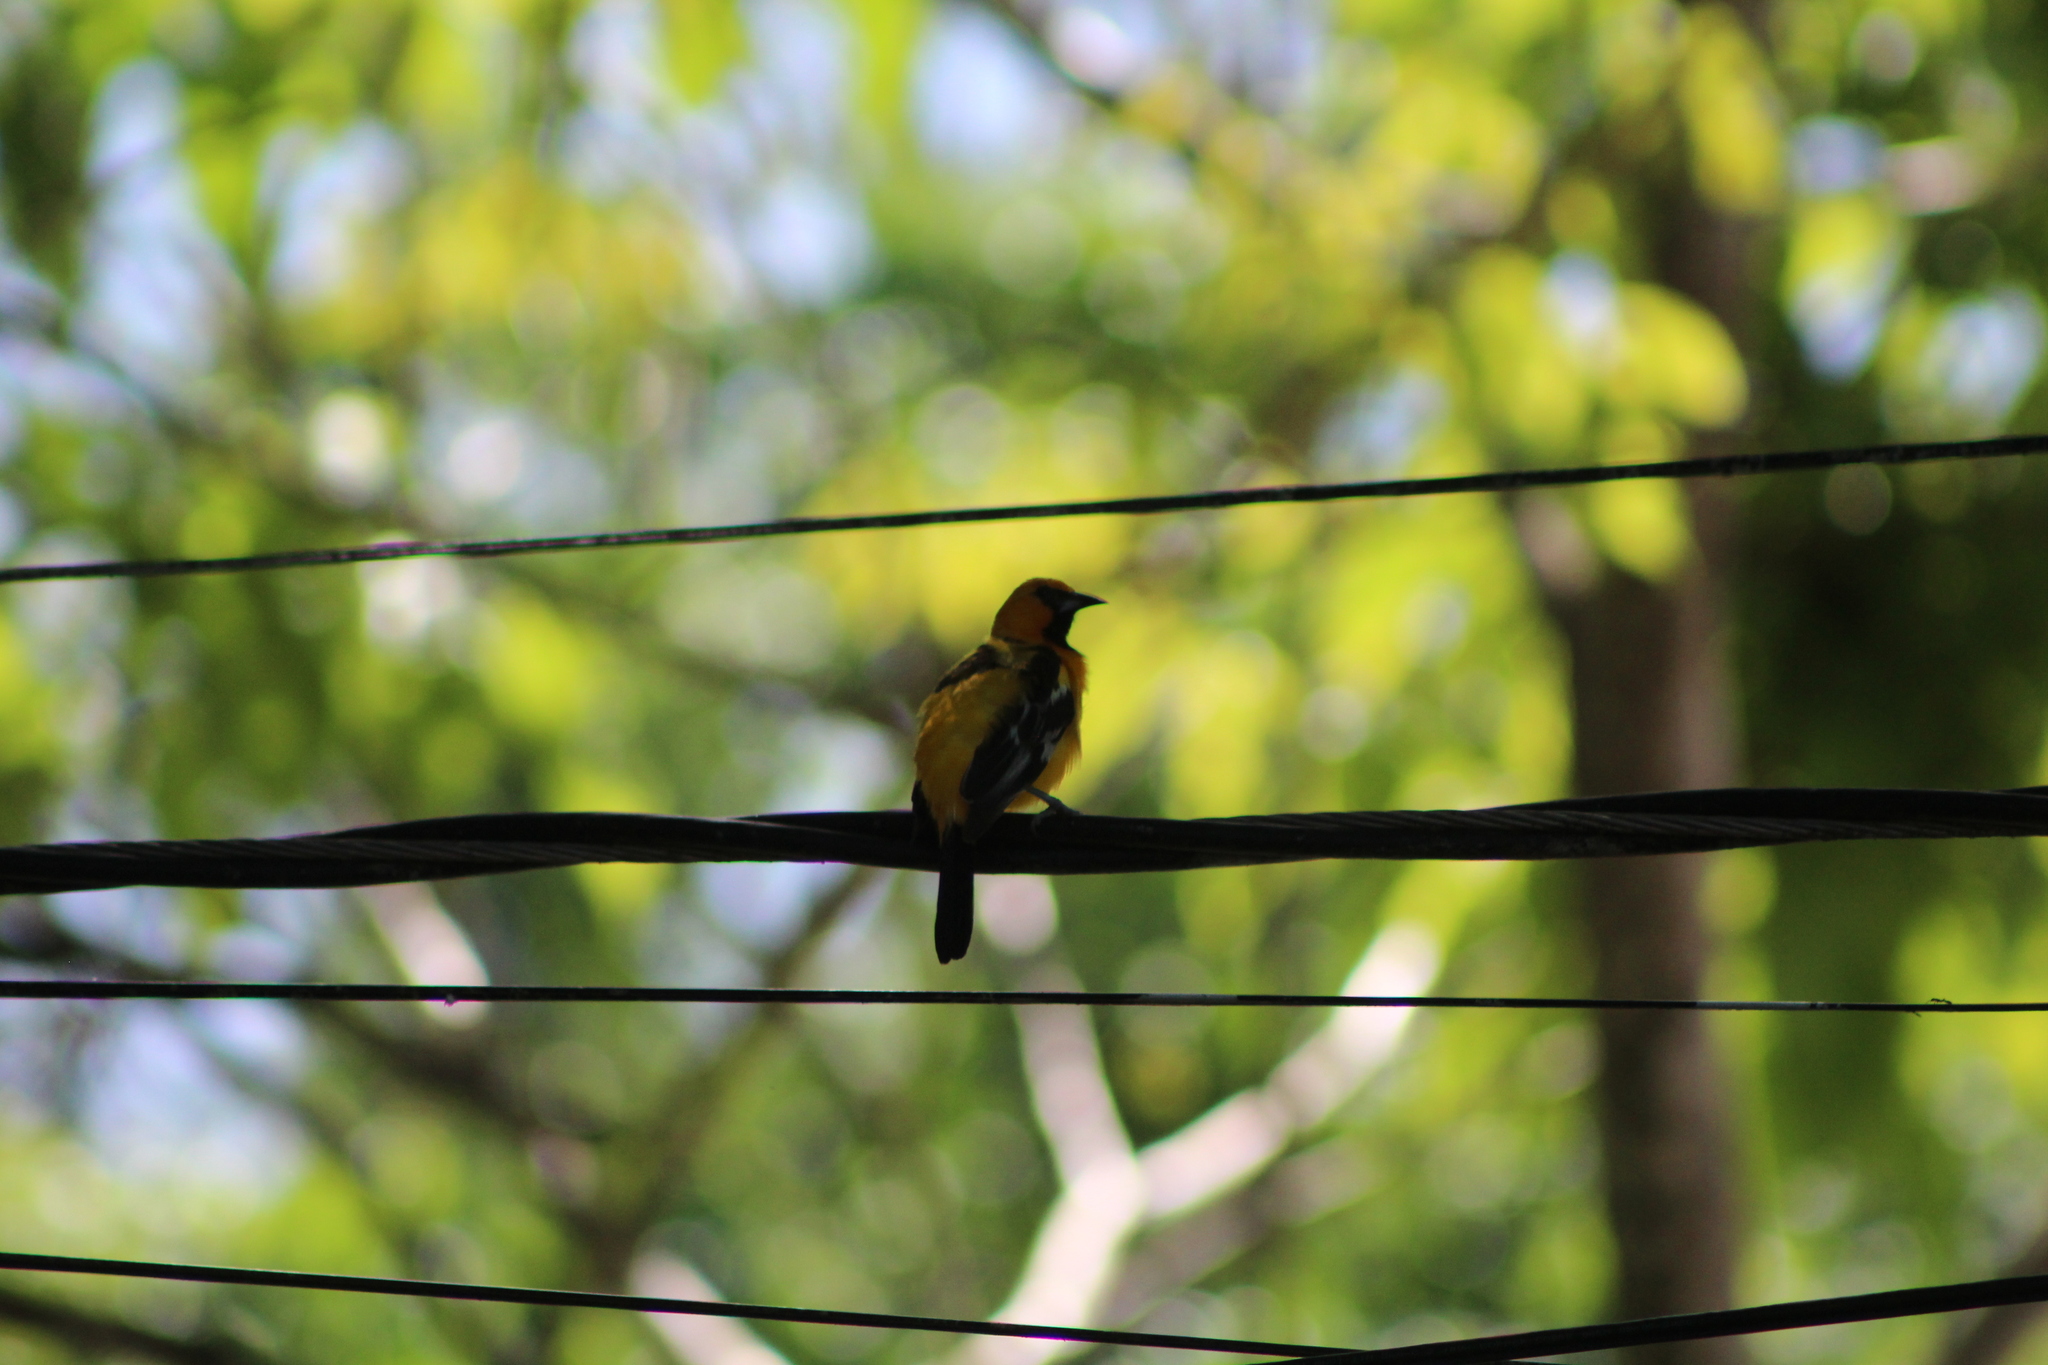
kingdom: Animalia
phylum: Chordata
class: Aves
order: Passeriformes
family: Icteridae
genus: Icterus
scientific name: Icterus pustulatus
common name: Streak-backed oriole
